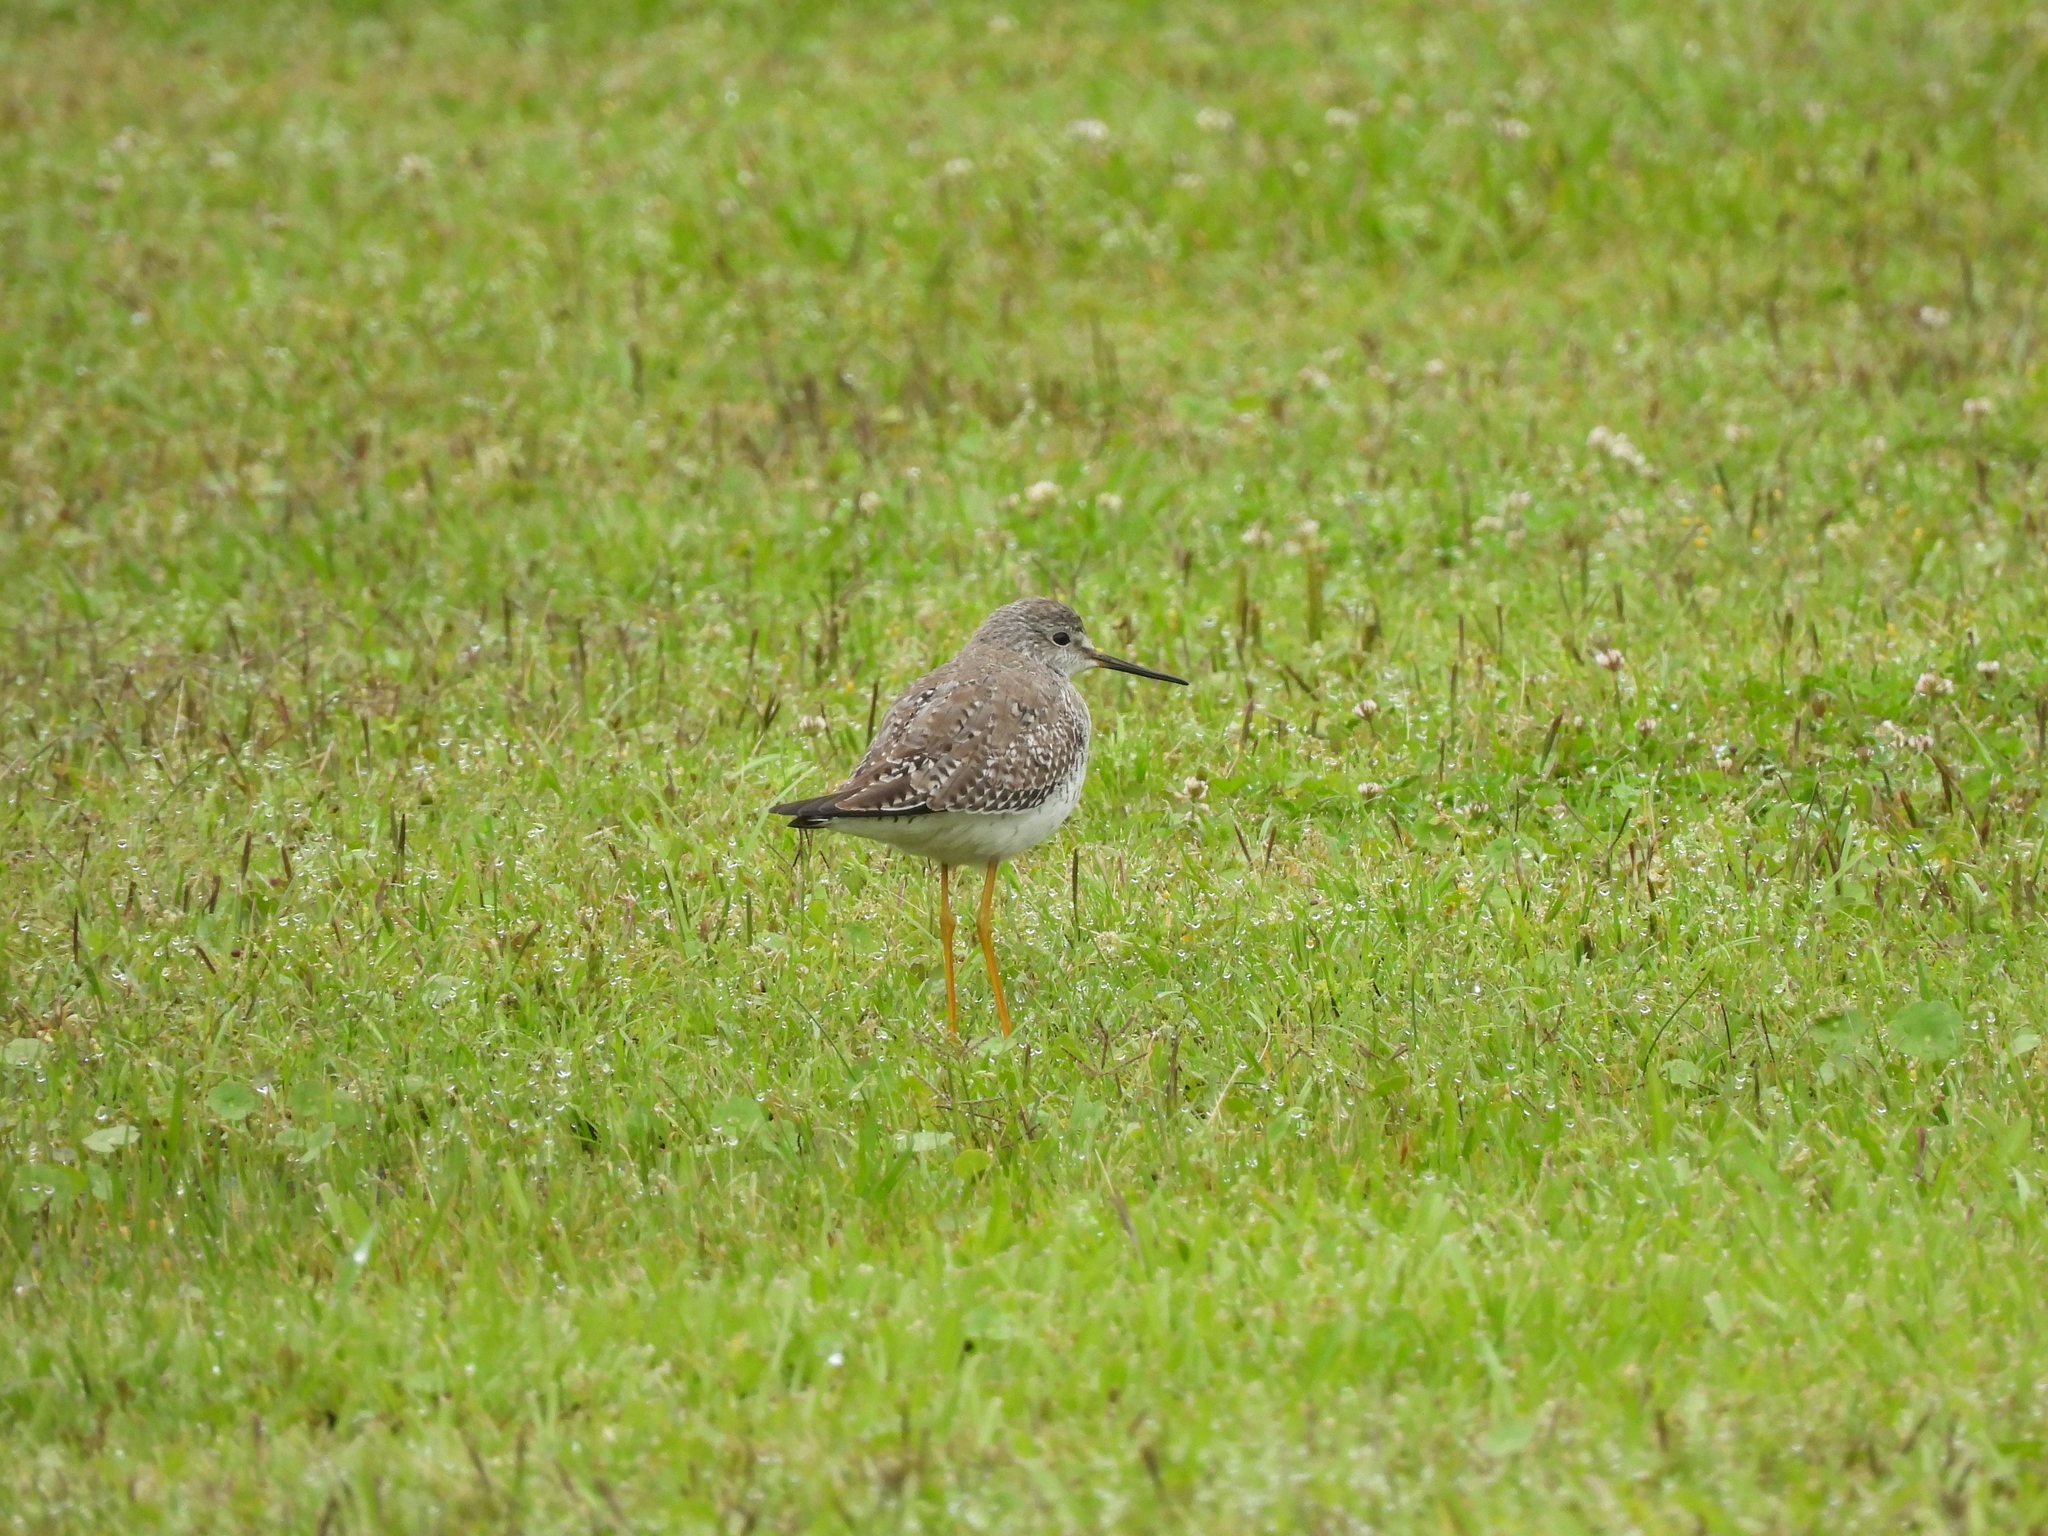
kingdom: Animalia
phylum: Chordata
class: Aves
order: Charadriiformes
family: Scolopacidae
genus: Tringa
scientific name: Tringa flavipes
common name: Lesser yellowlegs
